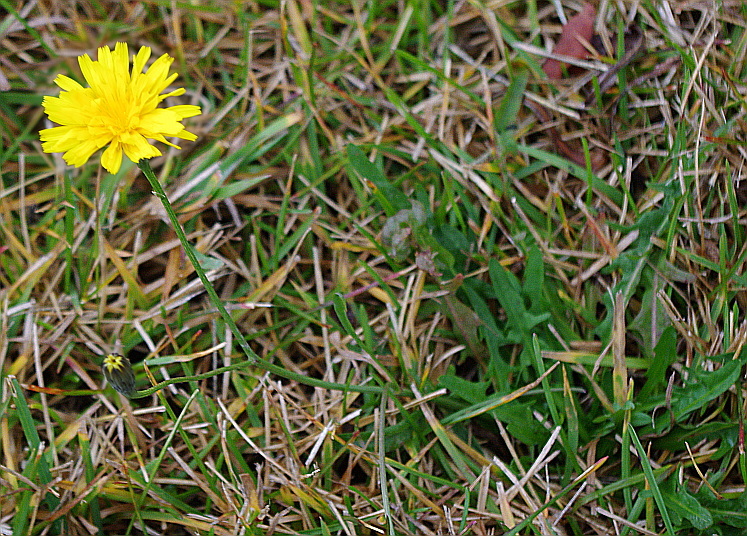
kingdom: Plantae
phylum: Tracheophyta
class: Magnoliopsida
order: Asterales
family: Asteraceae
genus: Scorzoneroides
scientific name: Scorzoneroides autumnalis
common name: Autumn hawkbit
